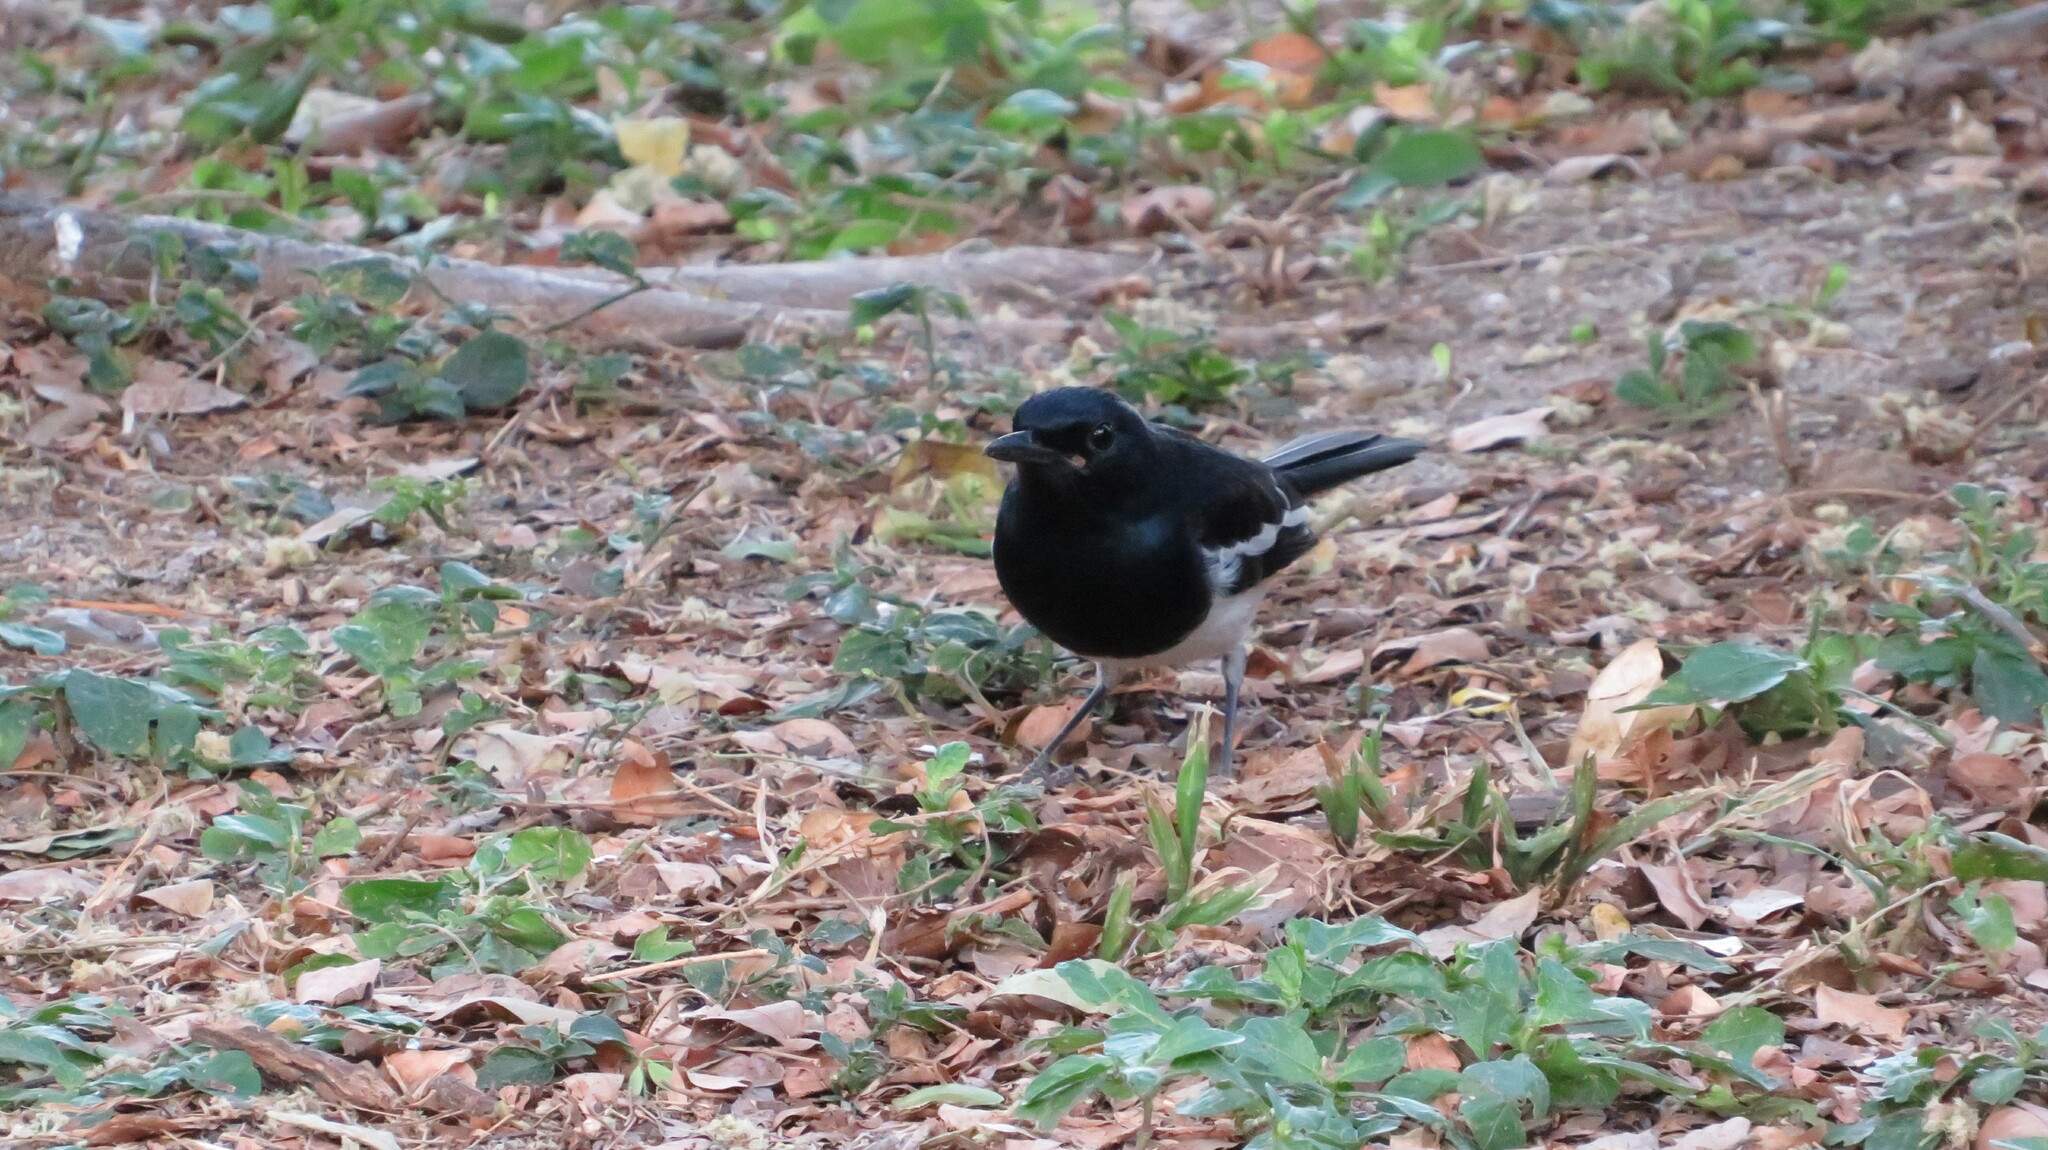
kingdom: Animalia
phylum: Chordata
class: Aves
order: Passeriformes
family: Muscicapidae
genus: Copsychus
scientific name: Copsychus saularis
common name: Oriental magpie-robin
